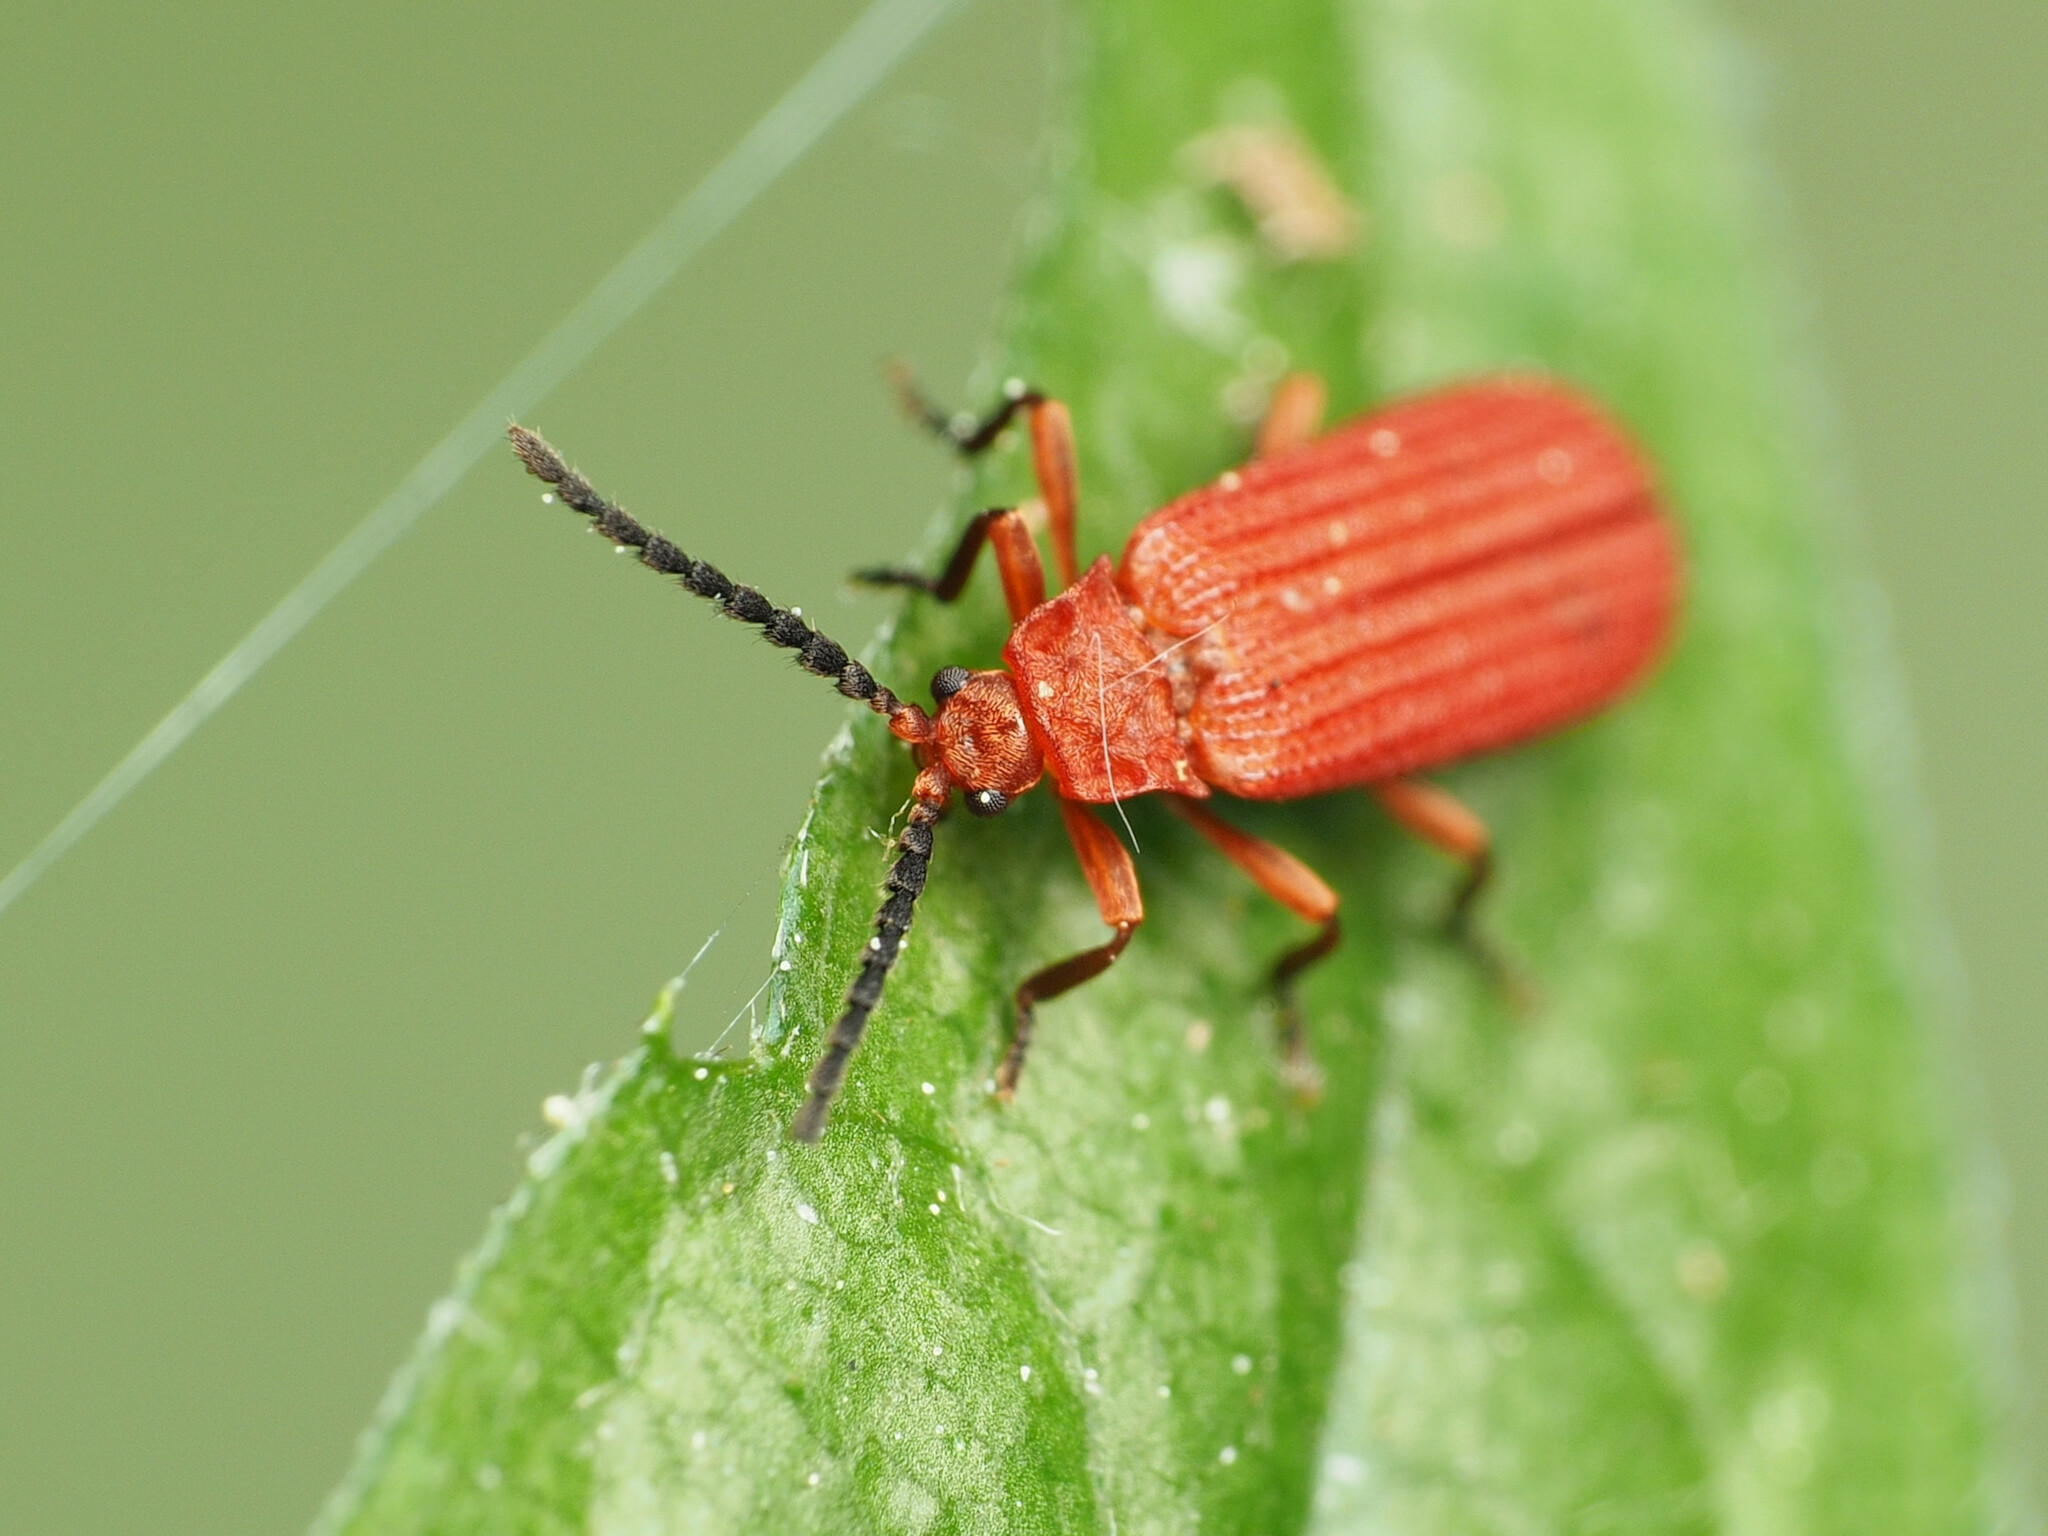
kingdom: Animalia
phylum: Arthropoda
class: Insecta
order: Coleoptera
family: Lycidae
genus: Punicealis
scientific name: Punicealis
